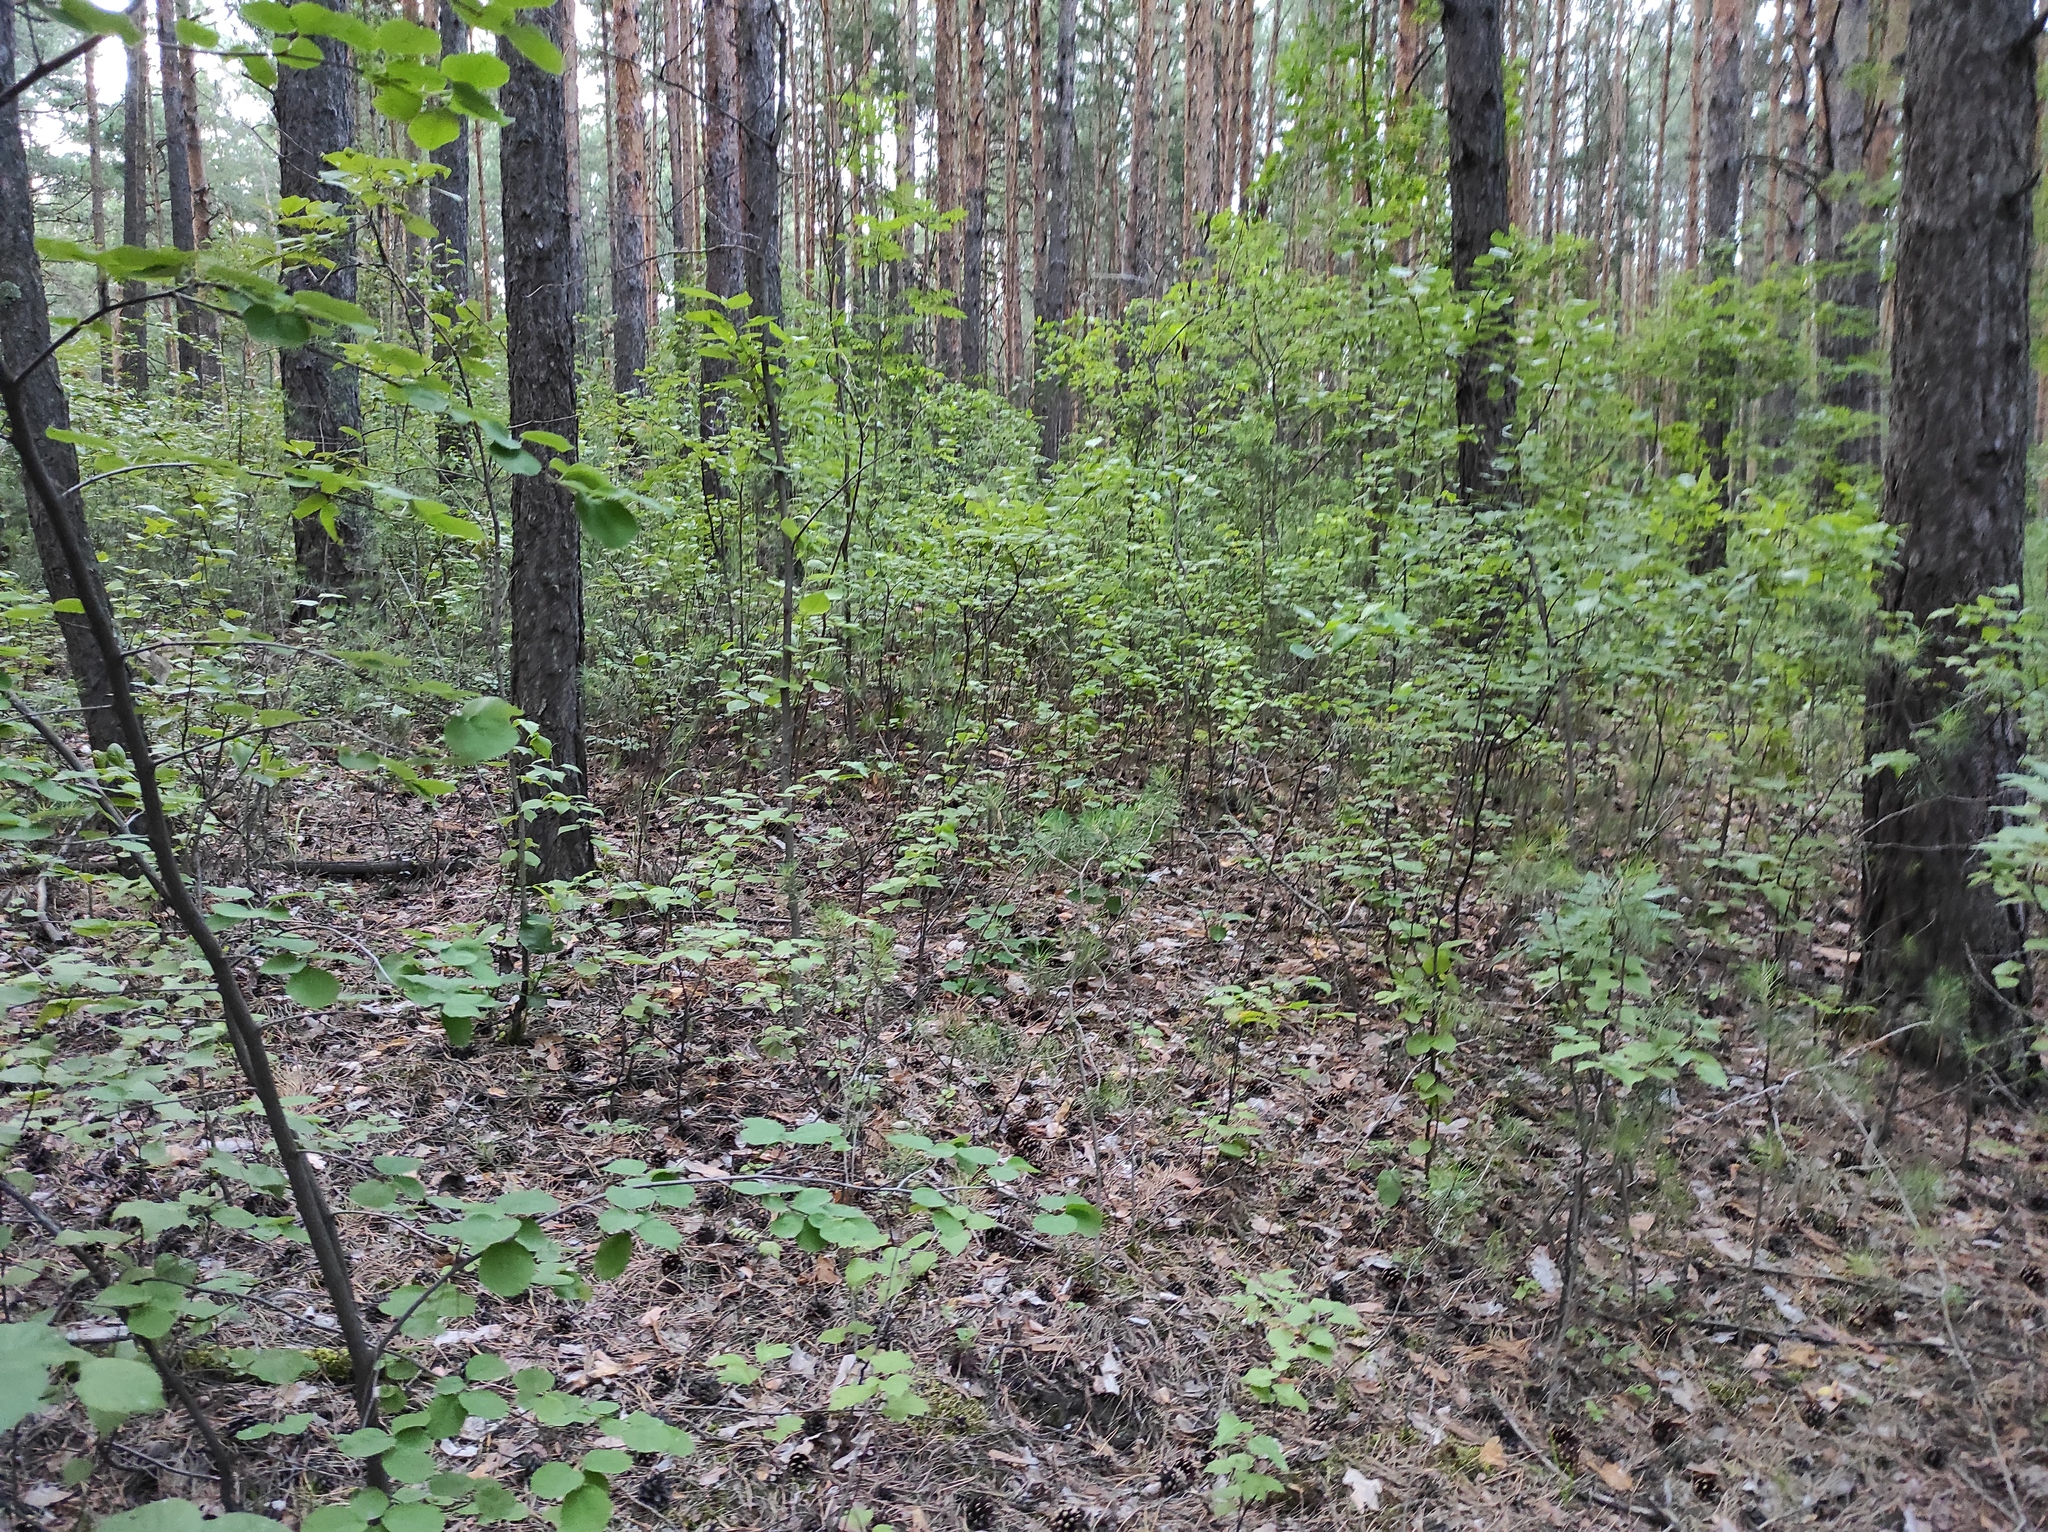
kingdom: Plantae
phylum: Tracheophyta
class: Pinopsida
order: Pinales
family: Pinaceae
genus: Pinus
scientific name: Pinus sylvestris
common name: Scots pine
